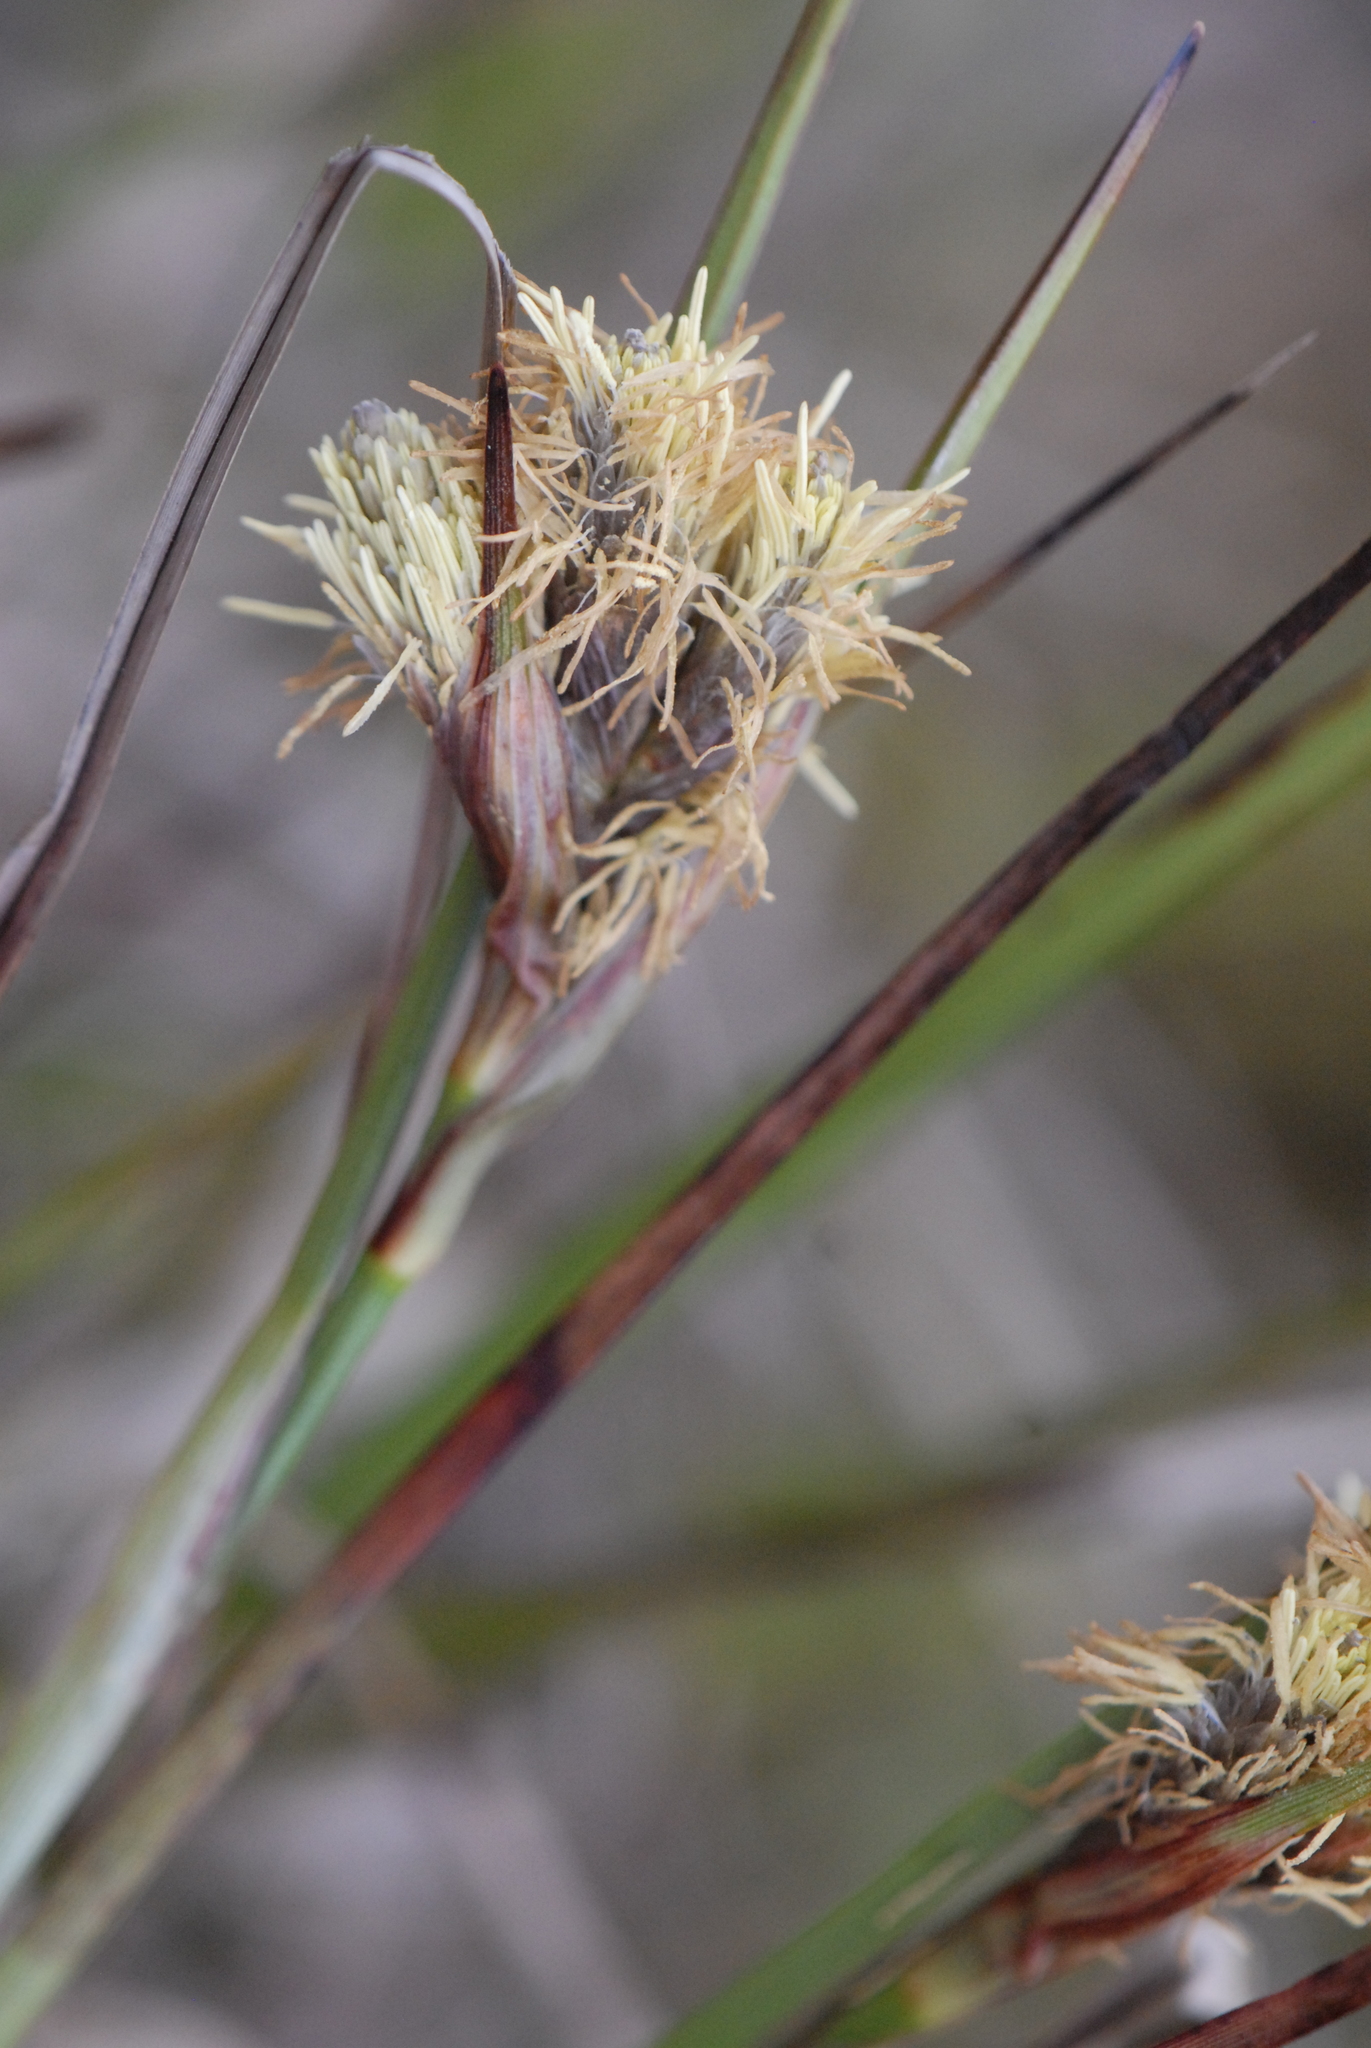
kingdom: Plantae
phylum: Tracheophyta
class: Liliopsida
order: Poales
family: Cyperaceae
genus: Eriophorum
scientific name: Eriophorum angustifolium
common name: Common cottongrass
